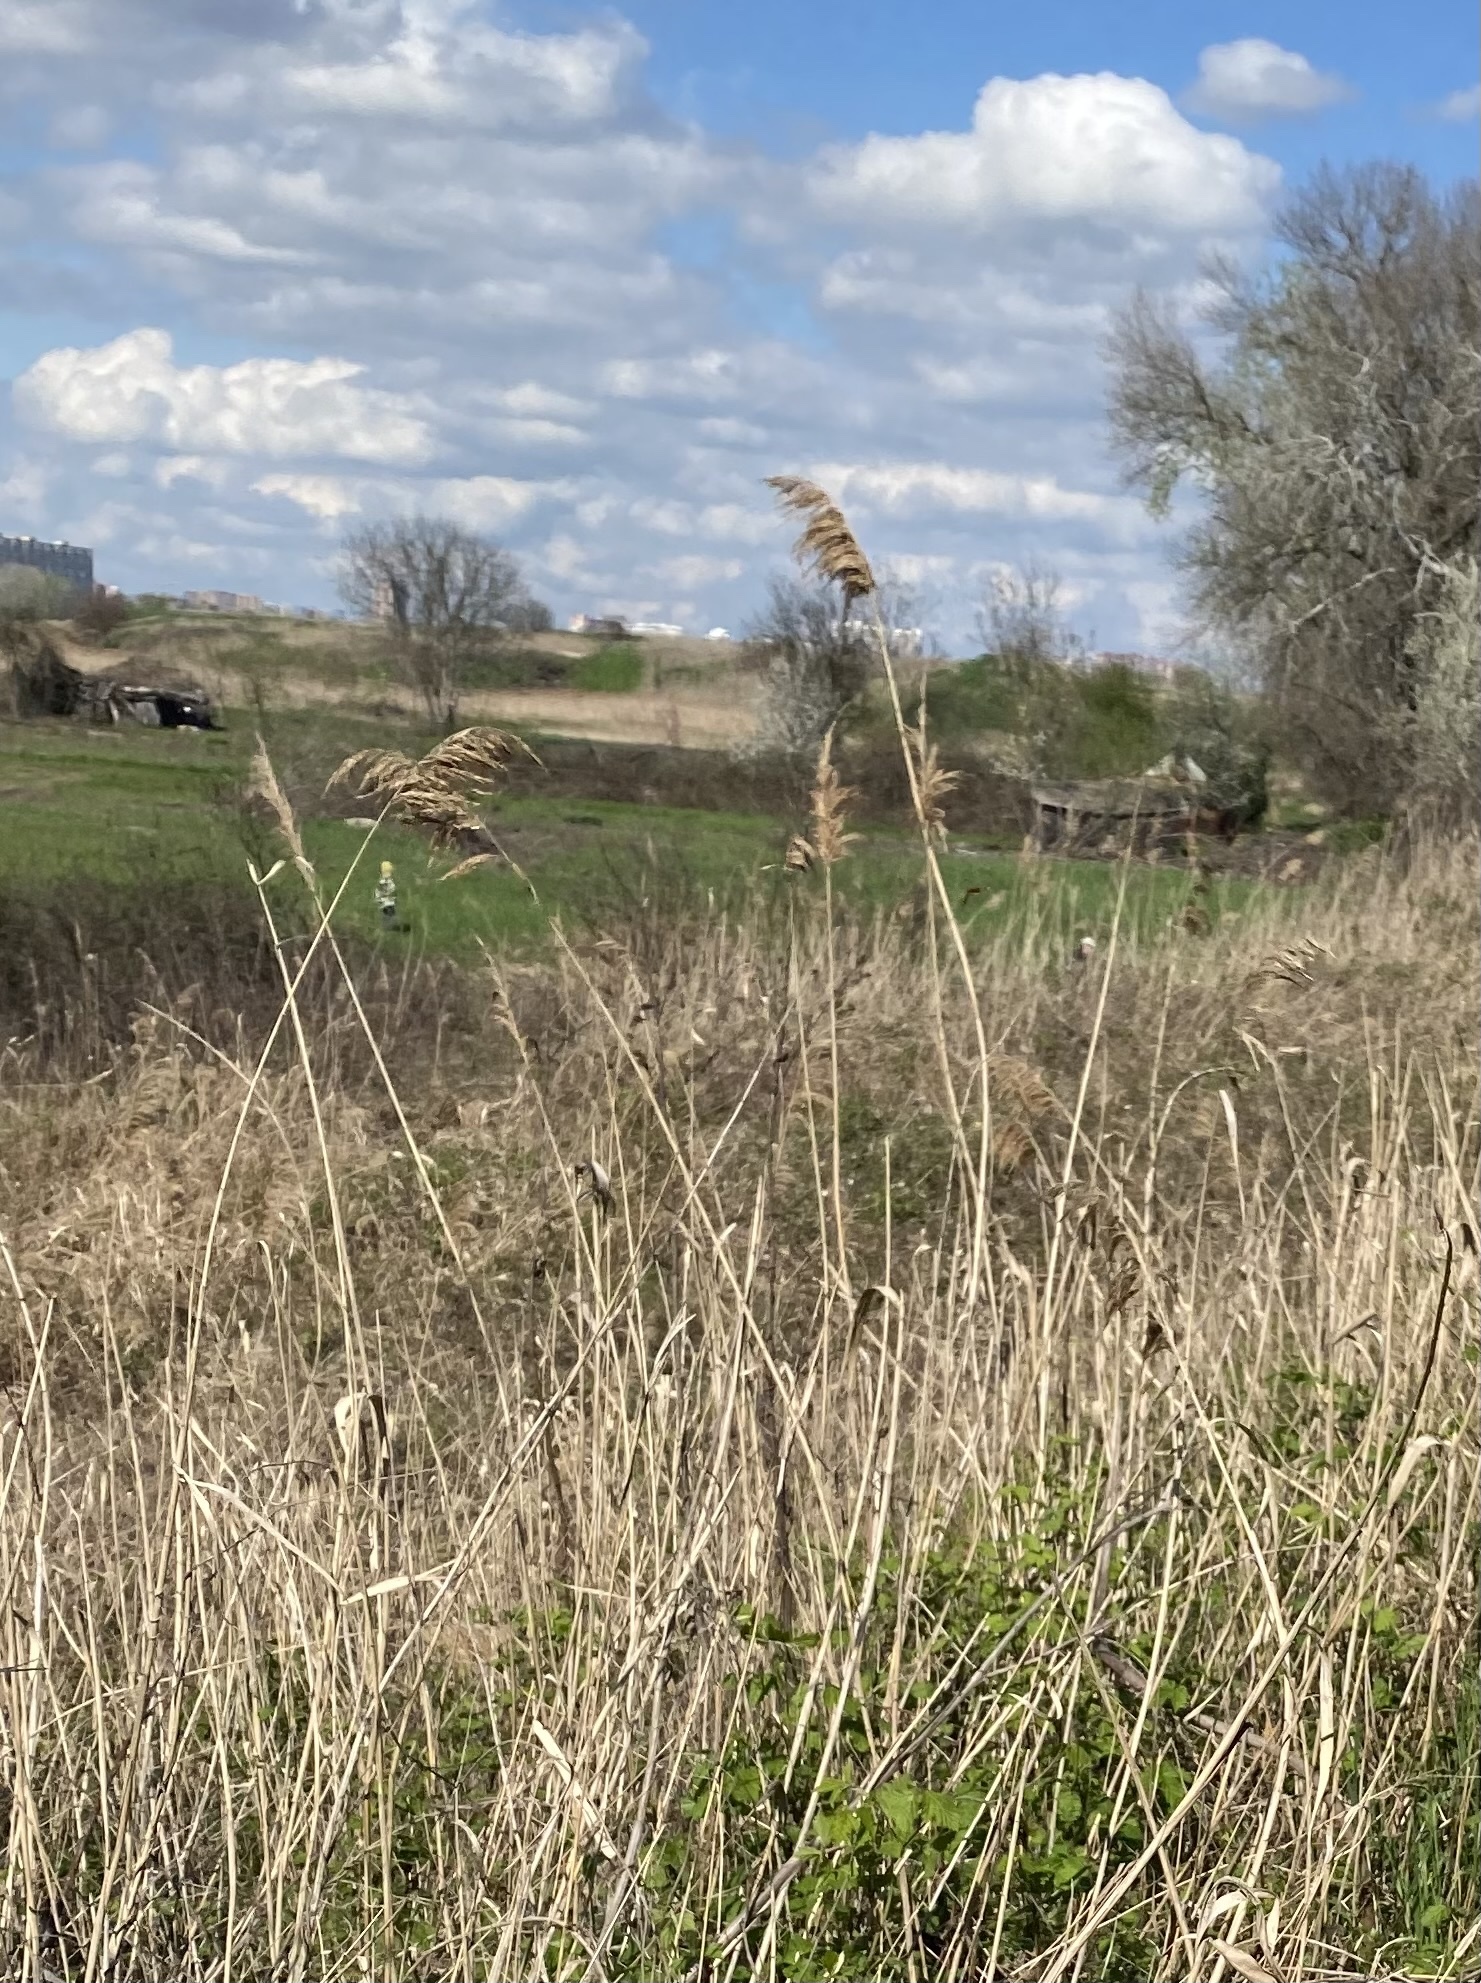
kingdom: Plantae
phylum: Tracheophyta
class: Liliopsida
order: Poales
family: Poaceae
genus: Phragmites
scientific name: Phragmites australis
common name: Common reed
